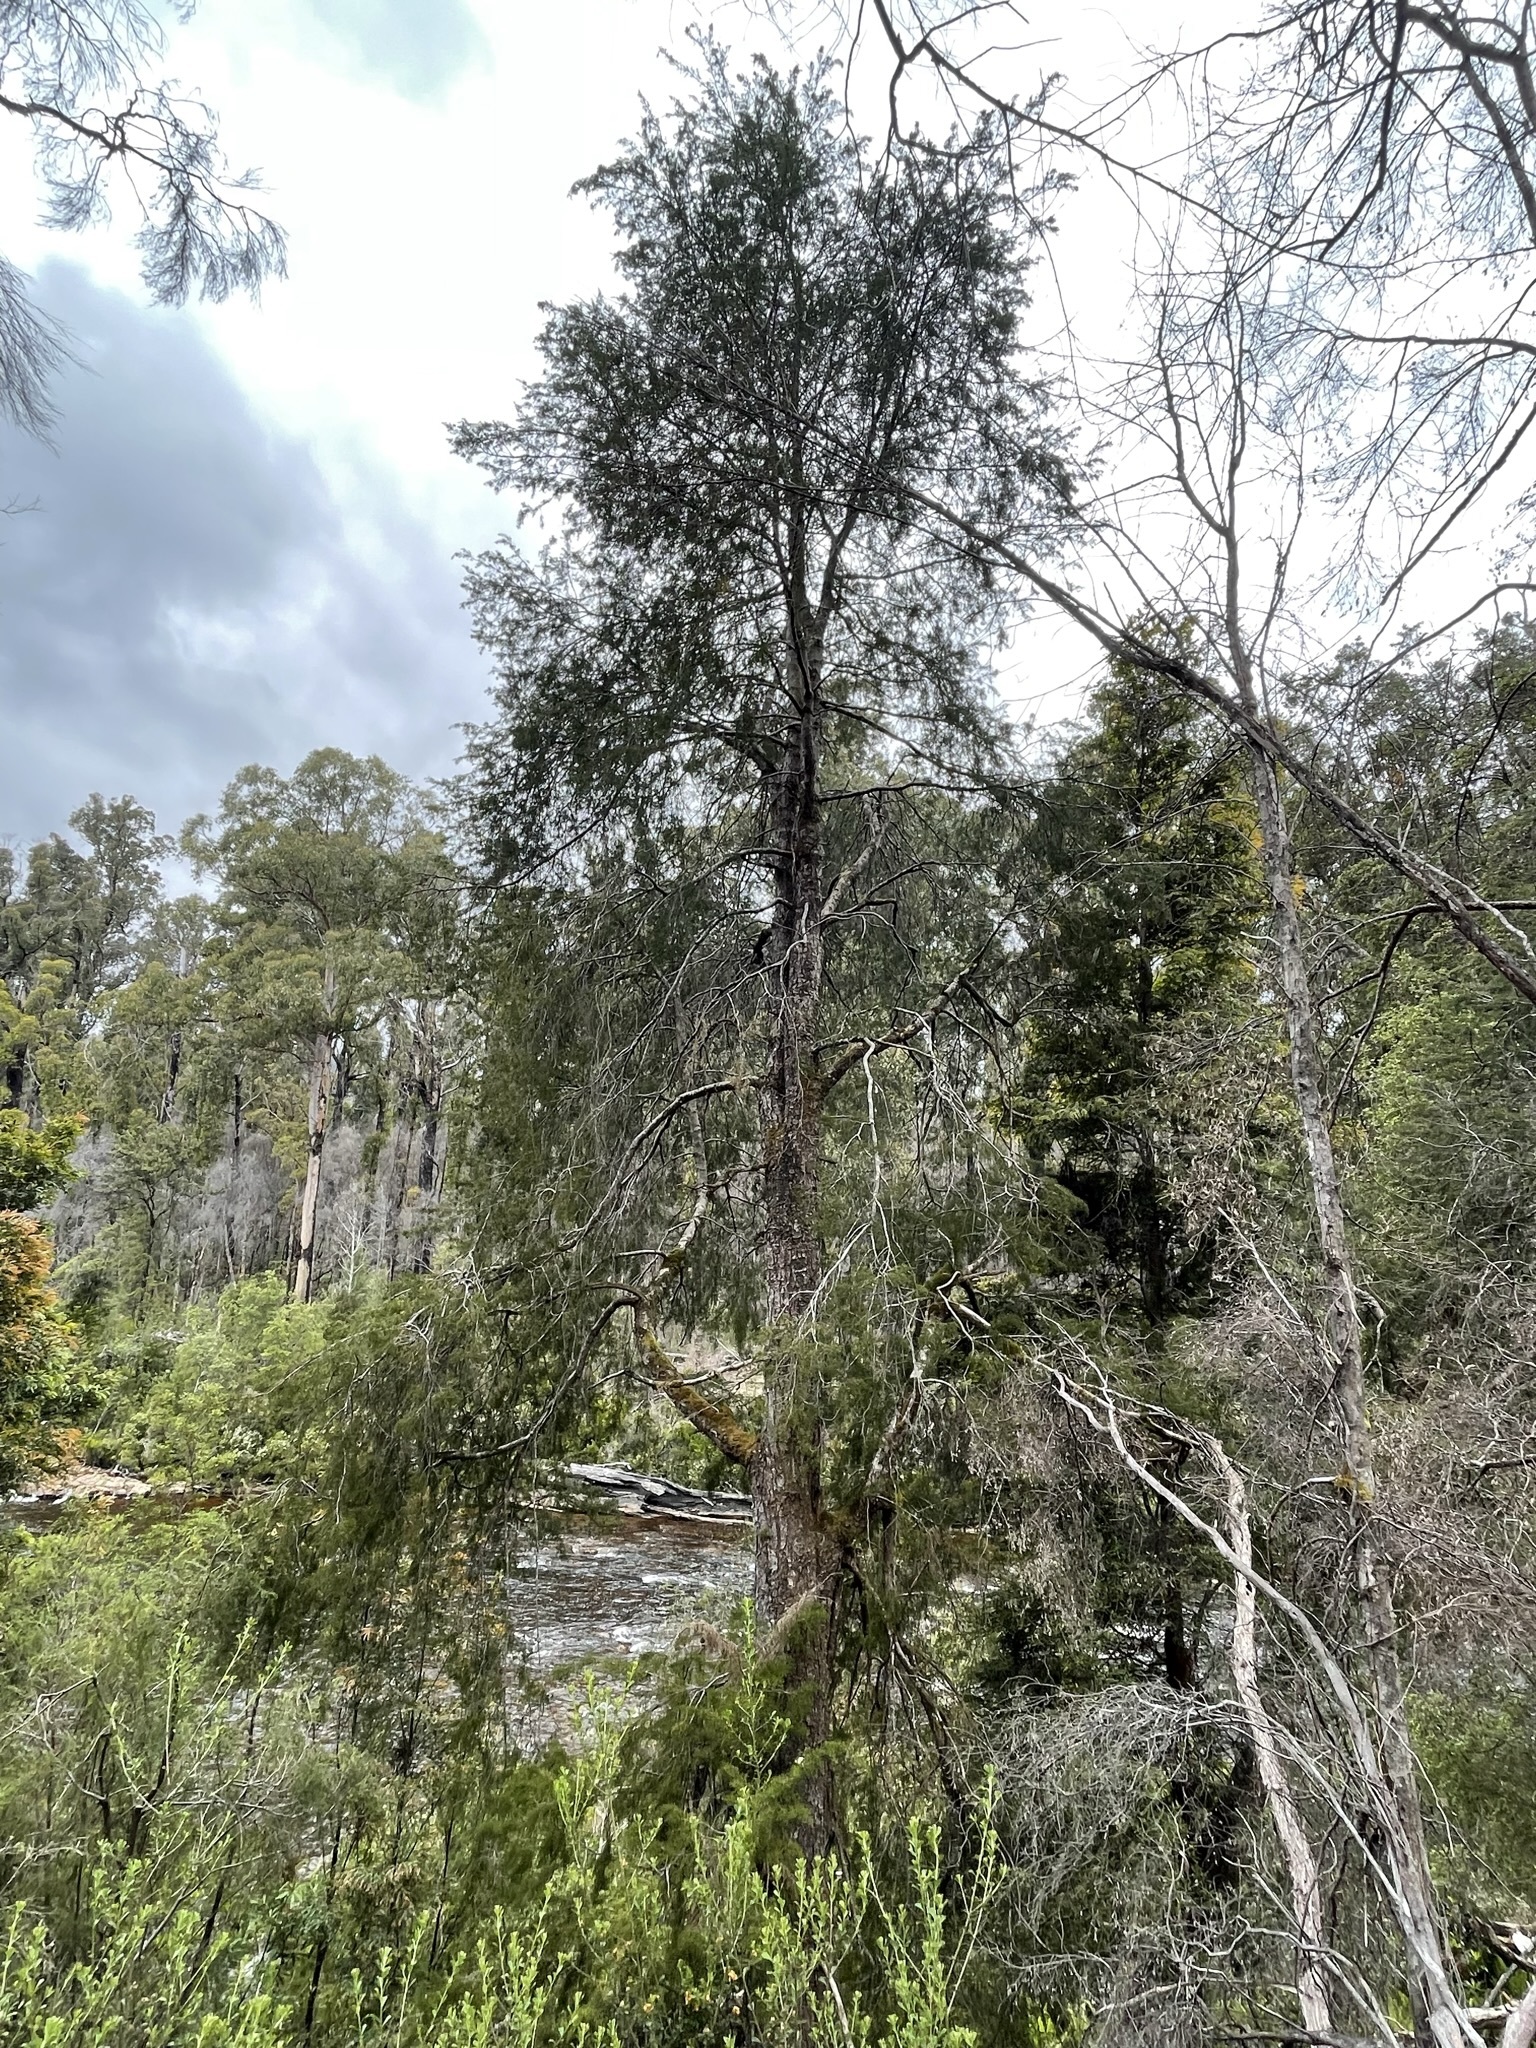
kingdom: Plantae
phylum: Tracheophyta
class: Pinopsida
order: Pinales
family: Podocarpaceae
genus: Lagarostrobos
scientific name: Lagarostrobos franklinii
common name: Huon pine
